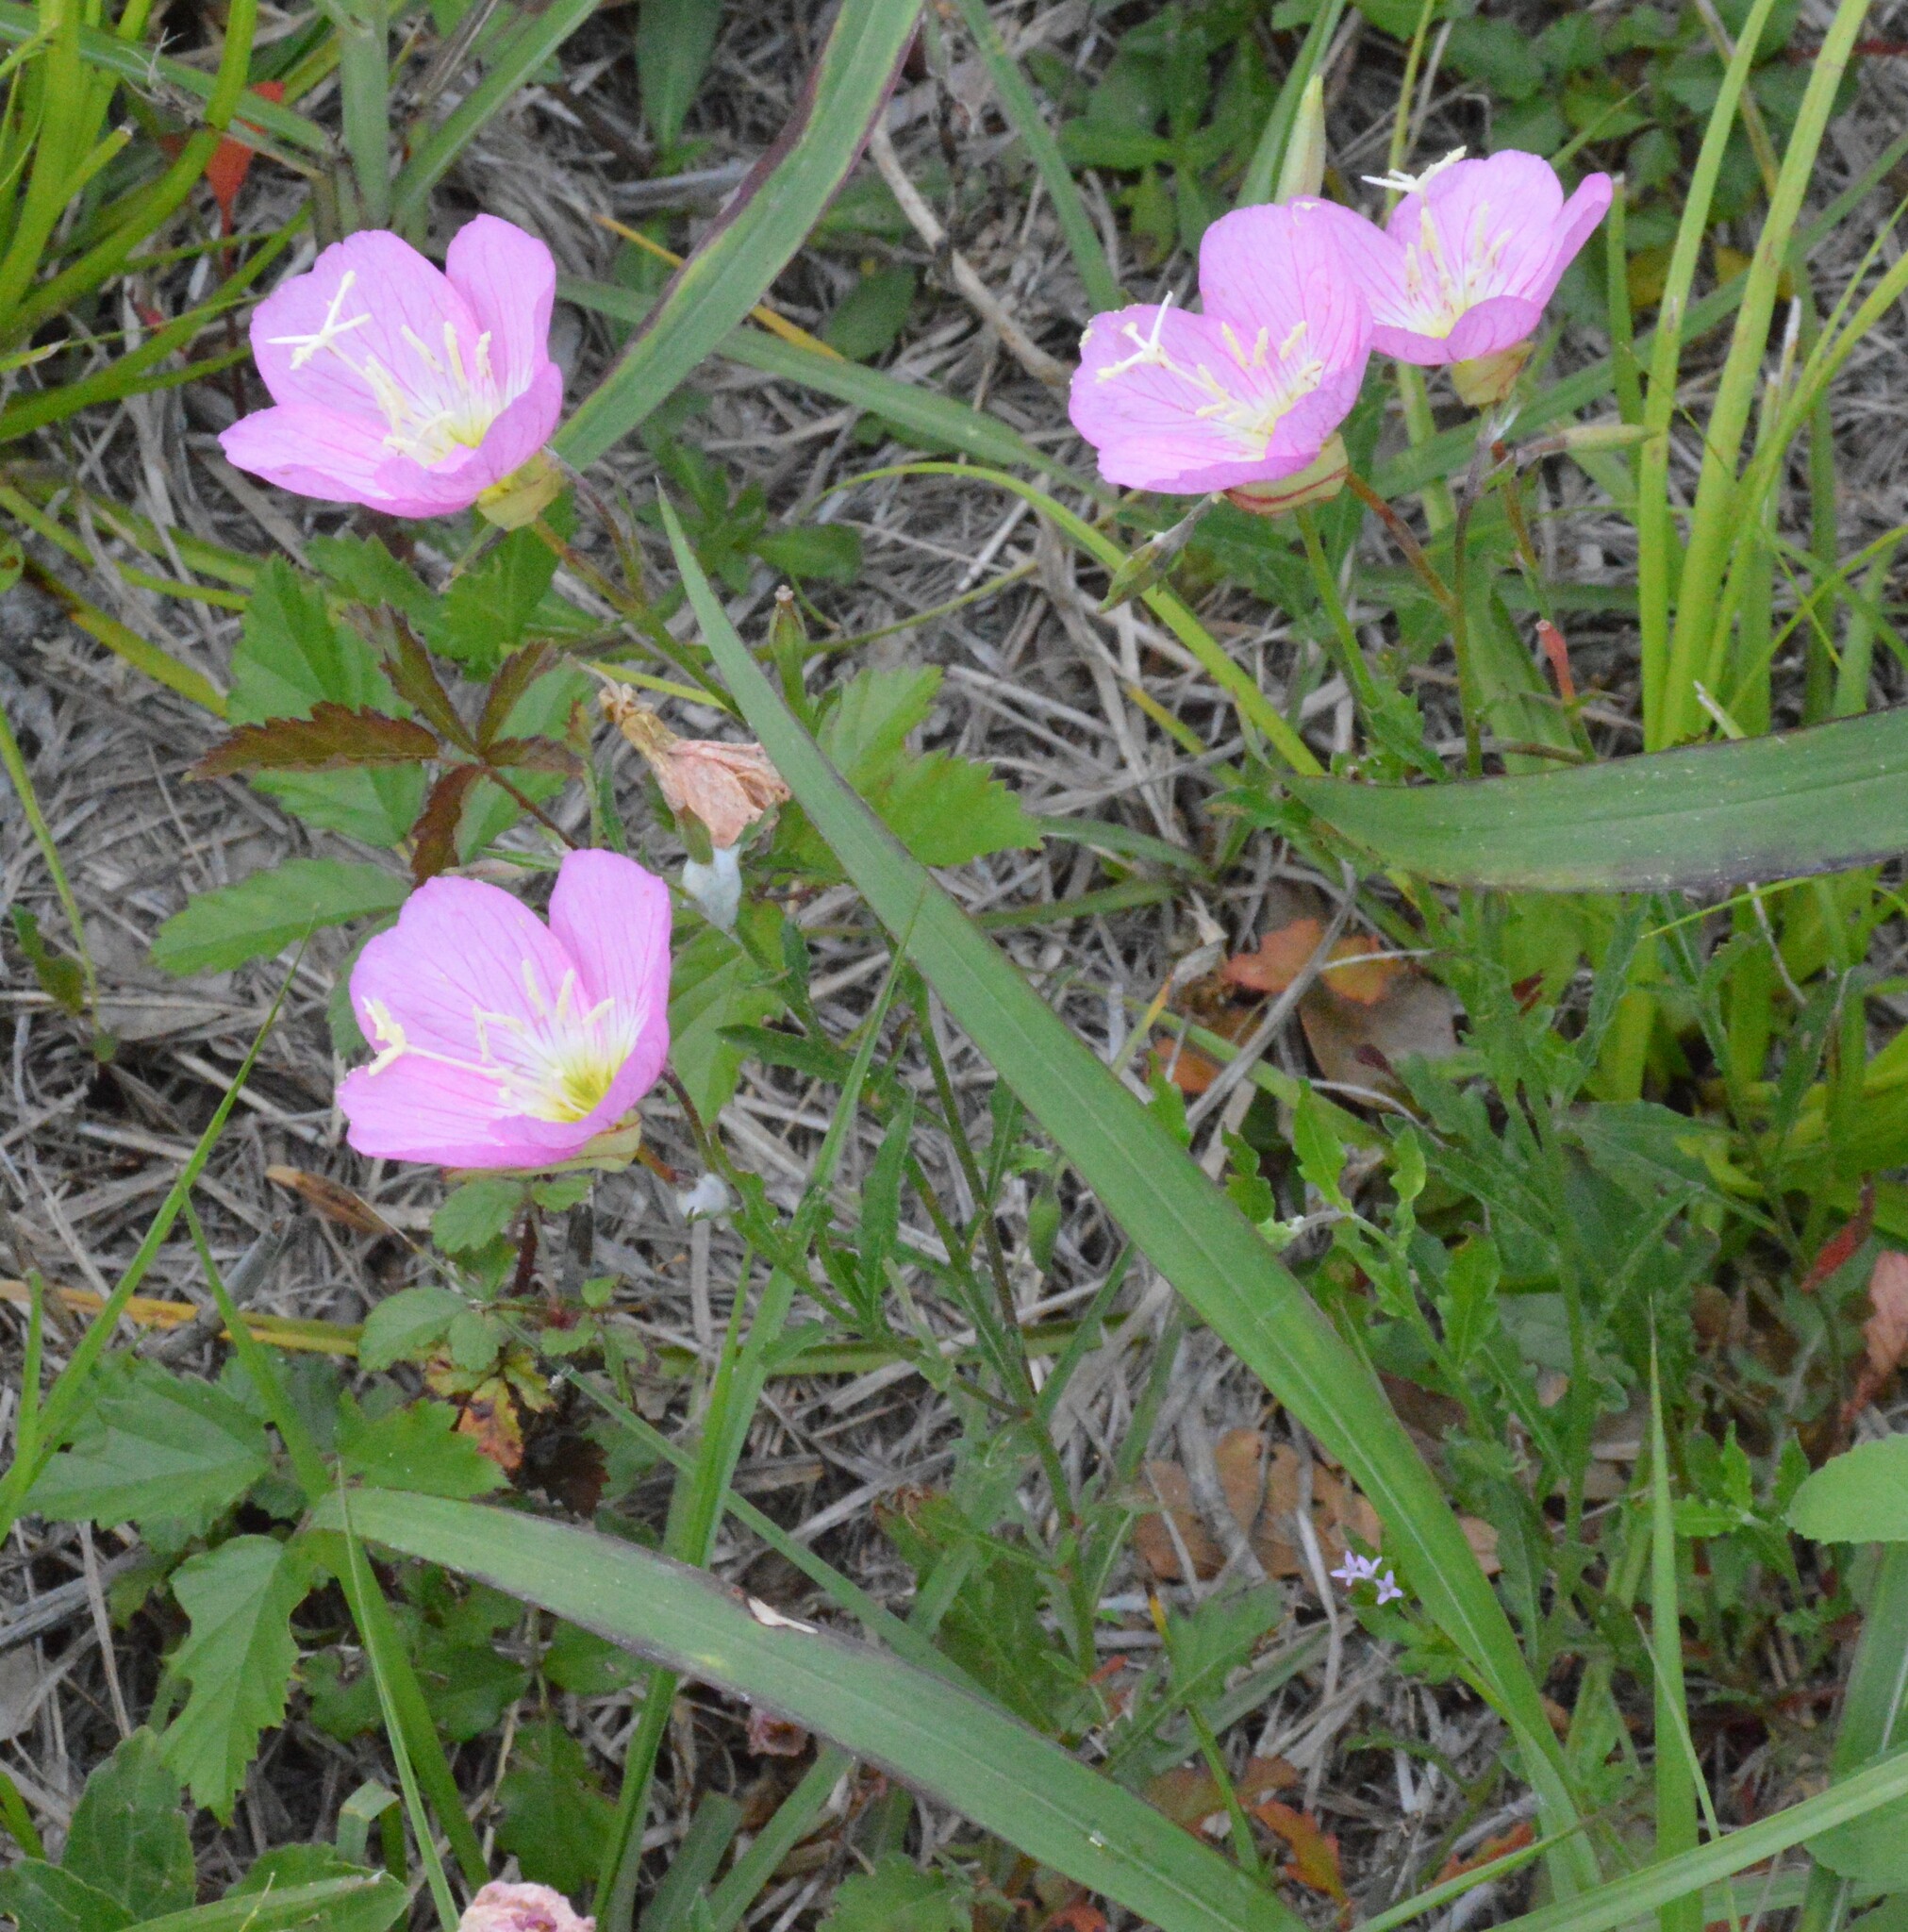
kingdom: Plantae
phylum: Tracheophyta
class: Magnoliopsida
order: Myrtales
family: Onagraceae
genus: Oenothera
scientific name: Oenothera speciosa
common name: White evening-primrose
